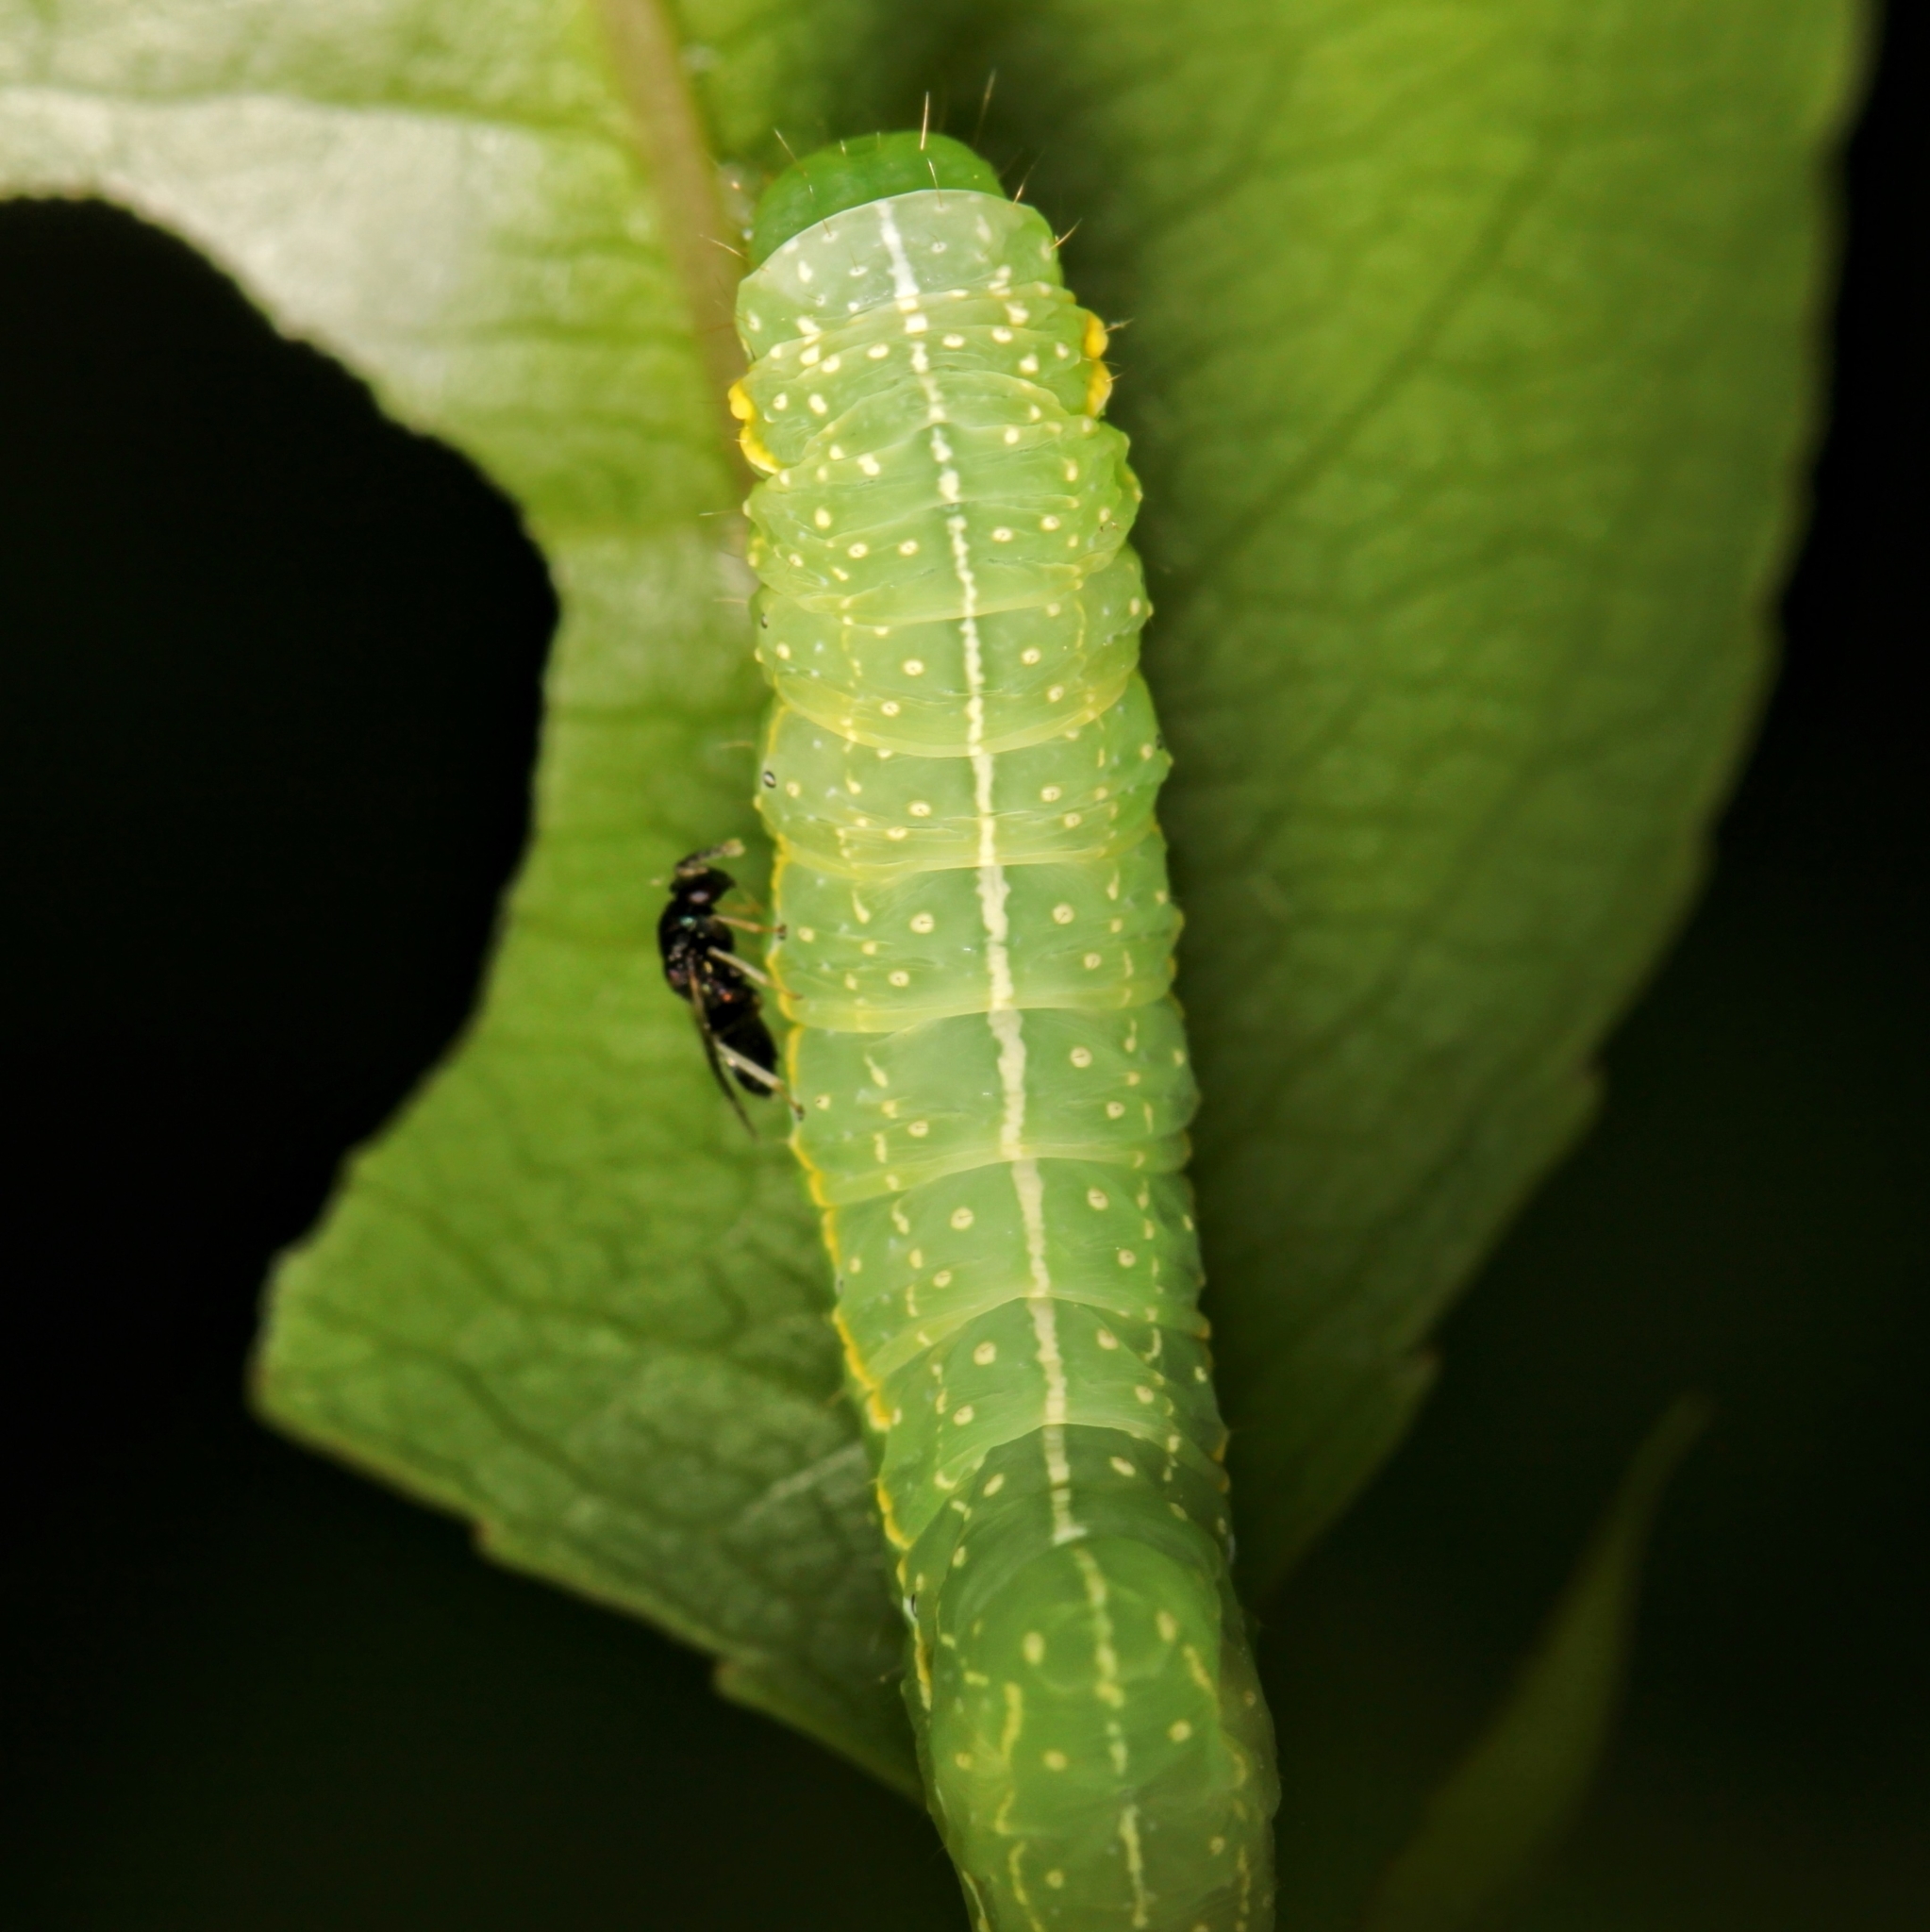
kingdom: Animalia
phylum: Arthropoda
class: Insecta
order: Lepidoptera
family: Noctuidae
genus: Amphipyra
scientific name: Amphipyra pyramidoides
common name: American copper underwing
